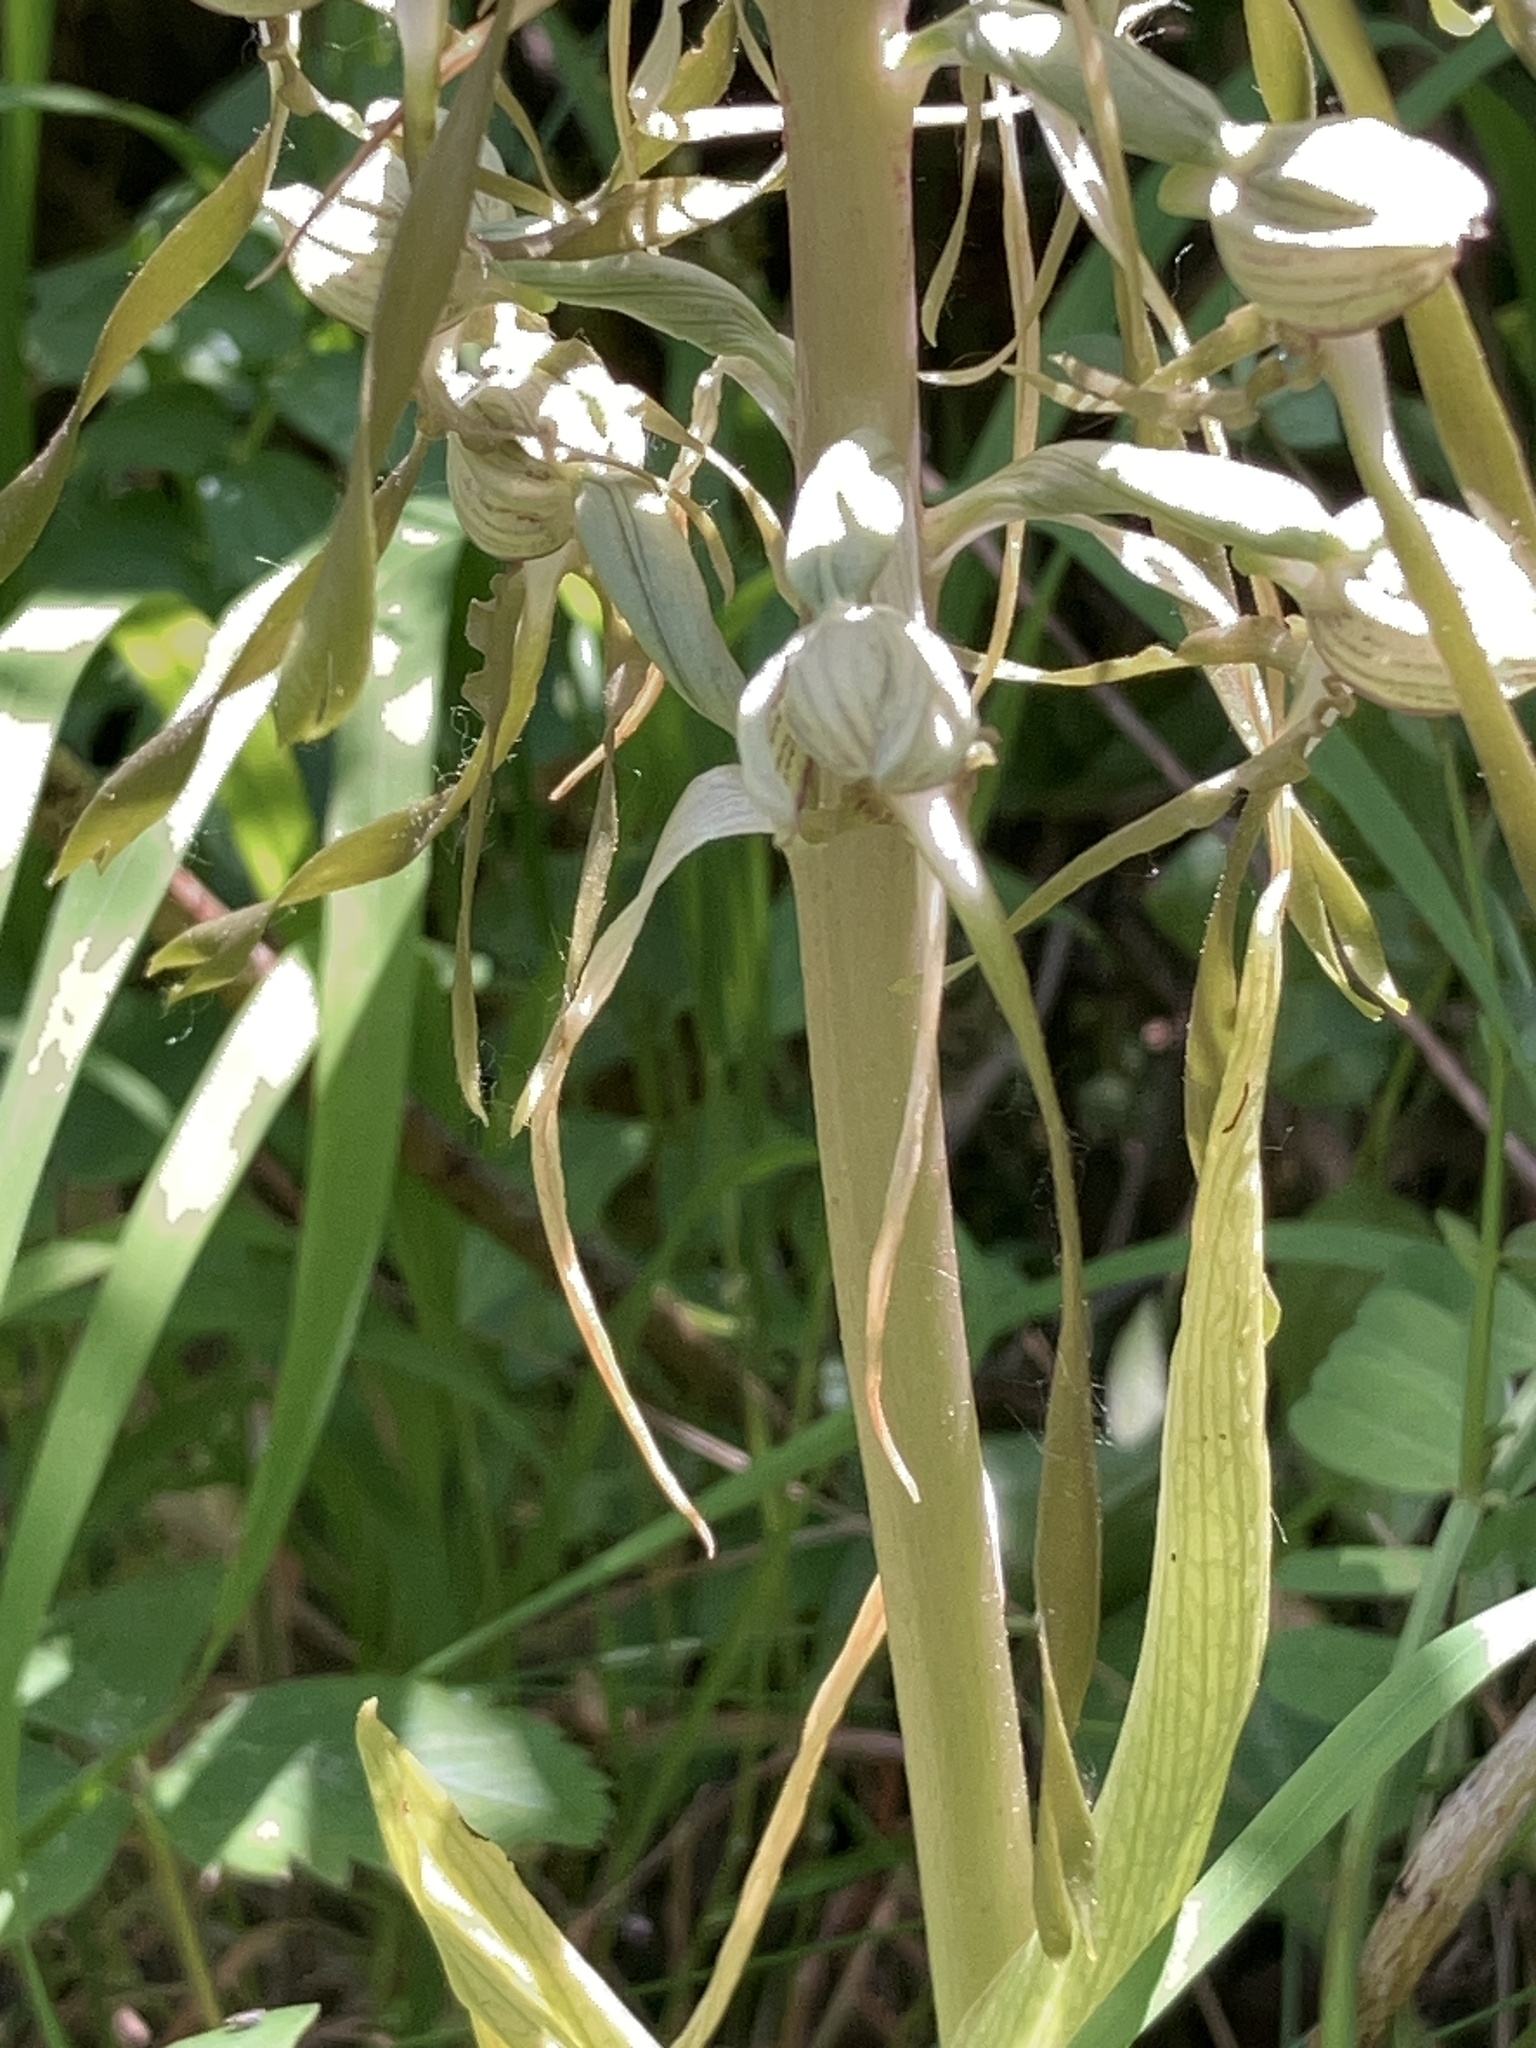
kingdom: Plantae
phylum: Tracheophyta
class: Liliopsida
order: Asparagales
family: Orchidaceae
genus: Himantoglossum
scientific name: Himantoglossum hircinum
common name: Lizard orchid
